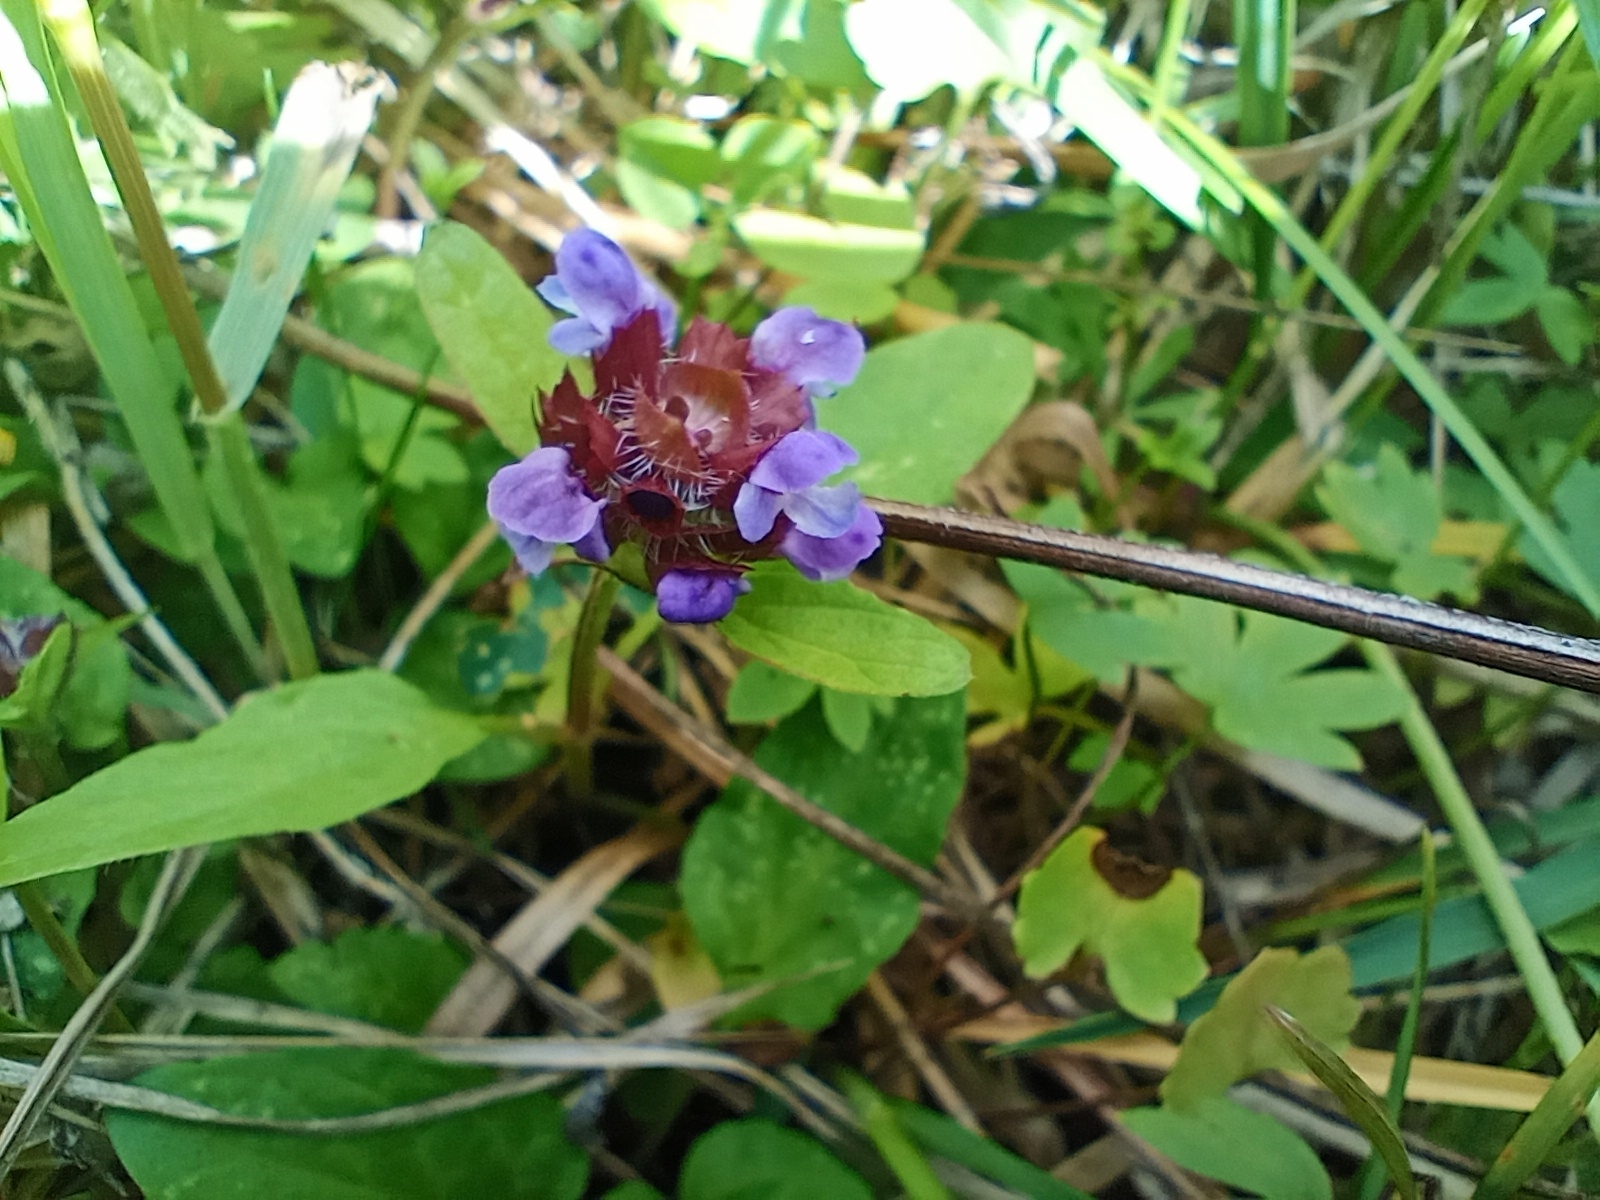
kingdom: Plantae
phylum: Tracheophyta
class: Magnoliopsida
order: Lamiales
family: Lamiaceae
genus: Prunella
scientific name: Prunella vulgaris
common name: Heal-all
